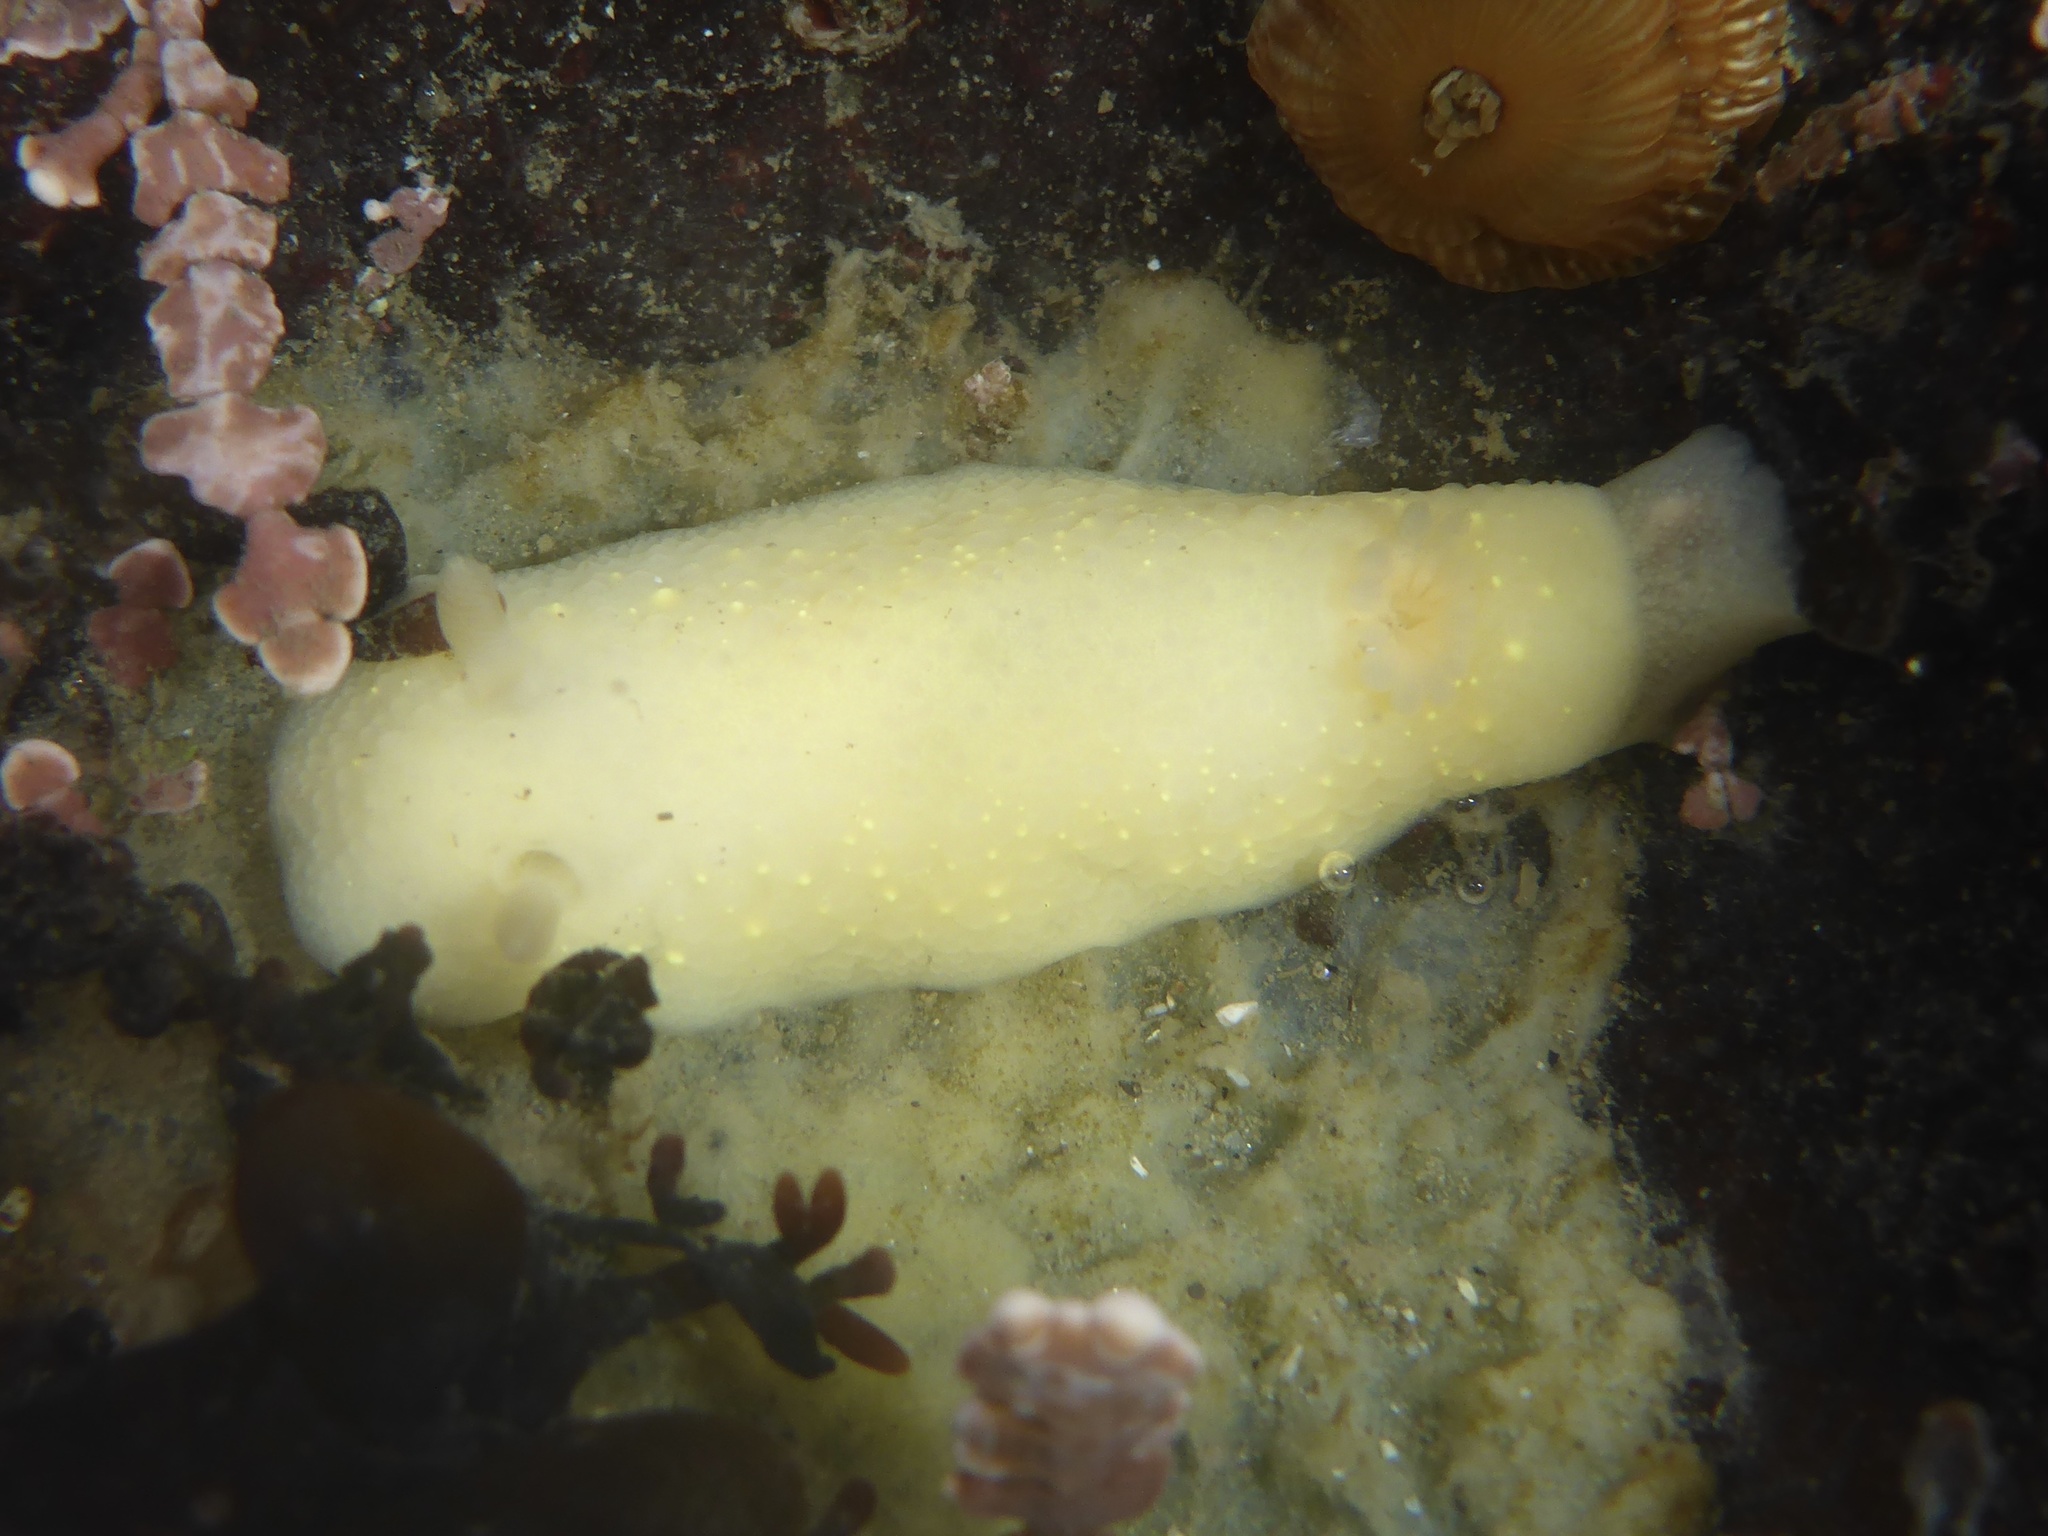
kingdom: Animalia
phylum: Mollusca
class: Gastropoda
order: Nudibranchia
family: Cadlinidae
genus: Cadlina
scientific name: Cadlina modesta
